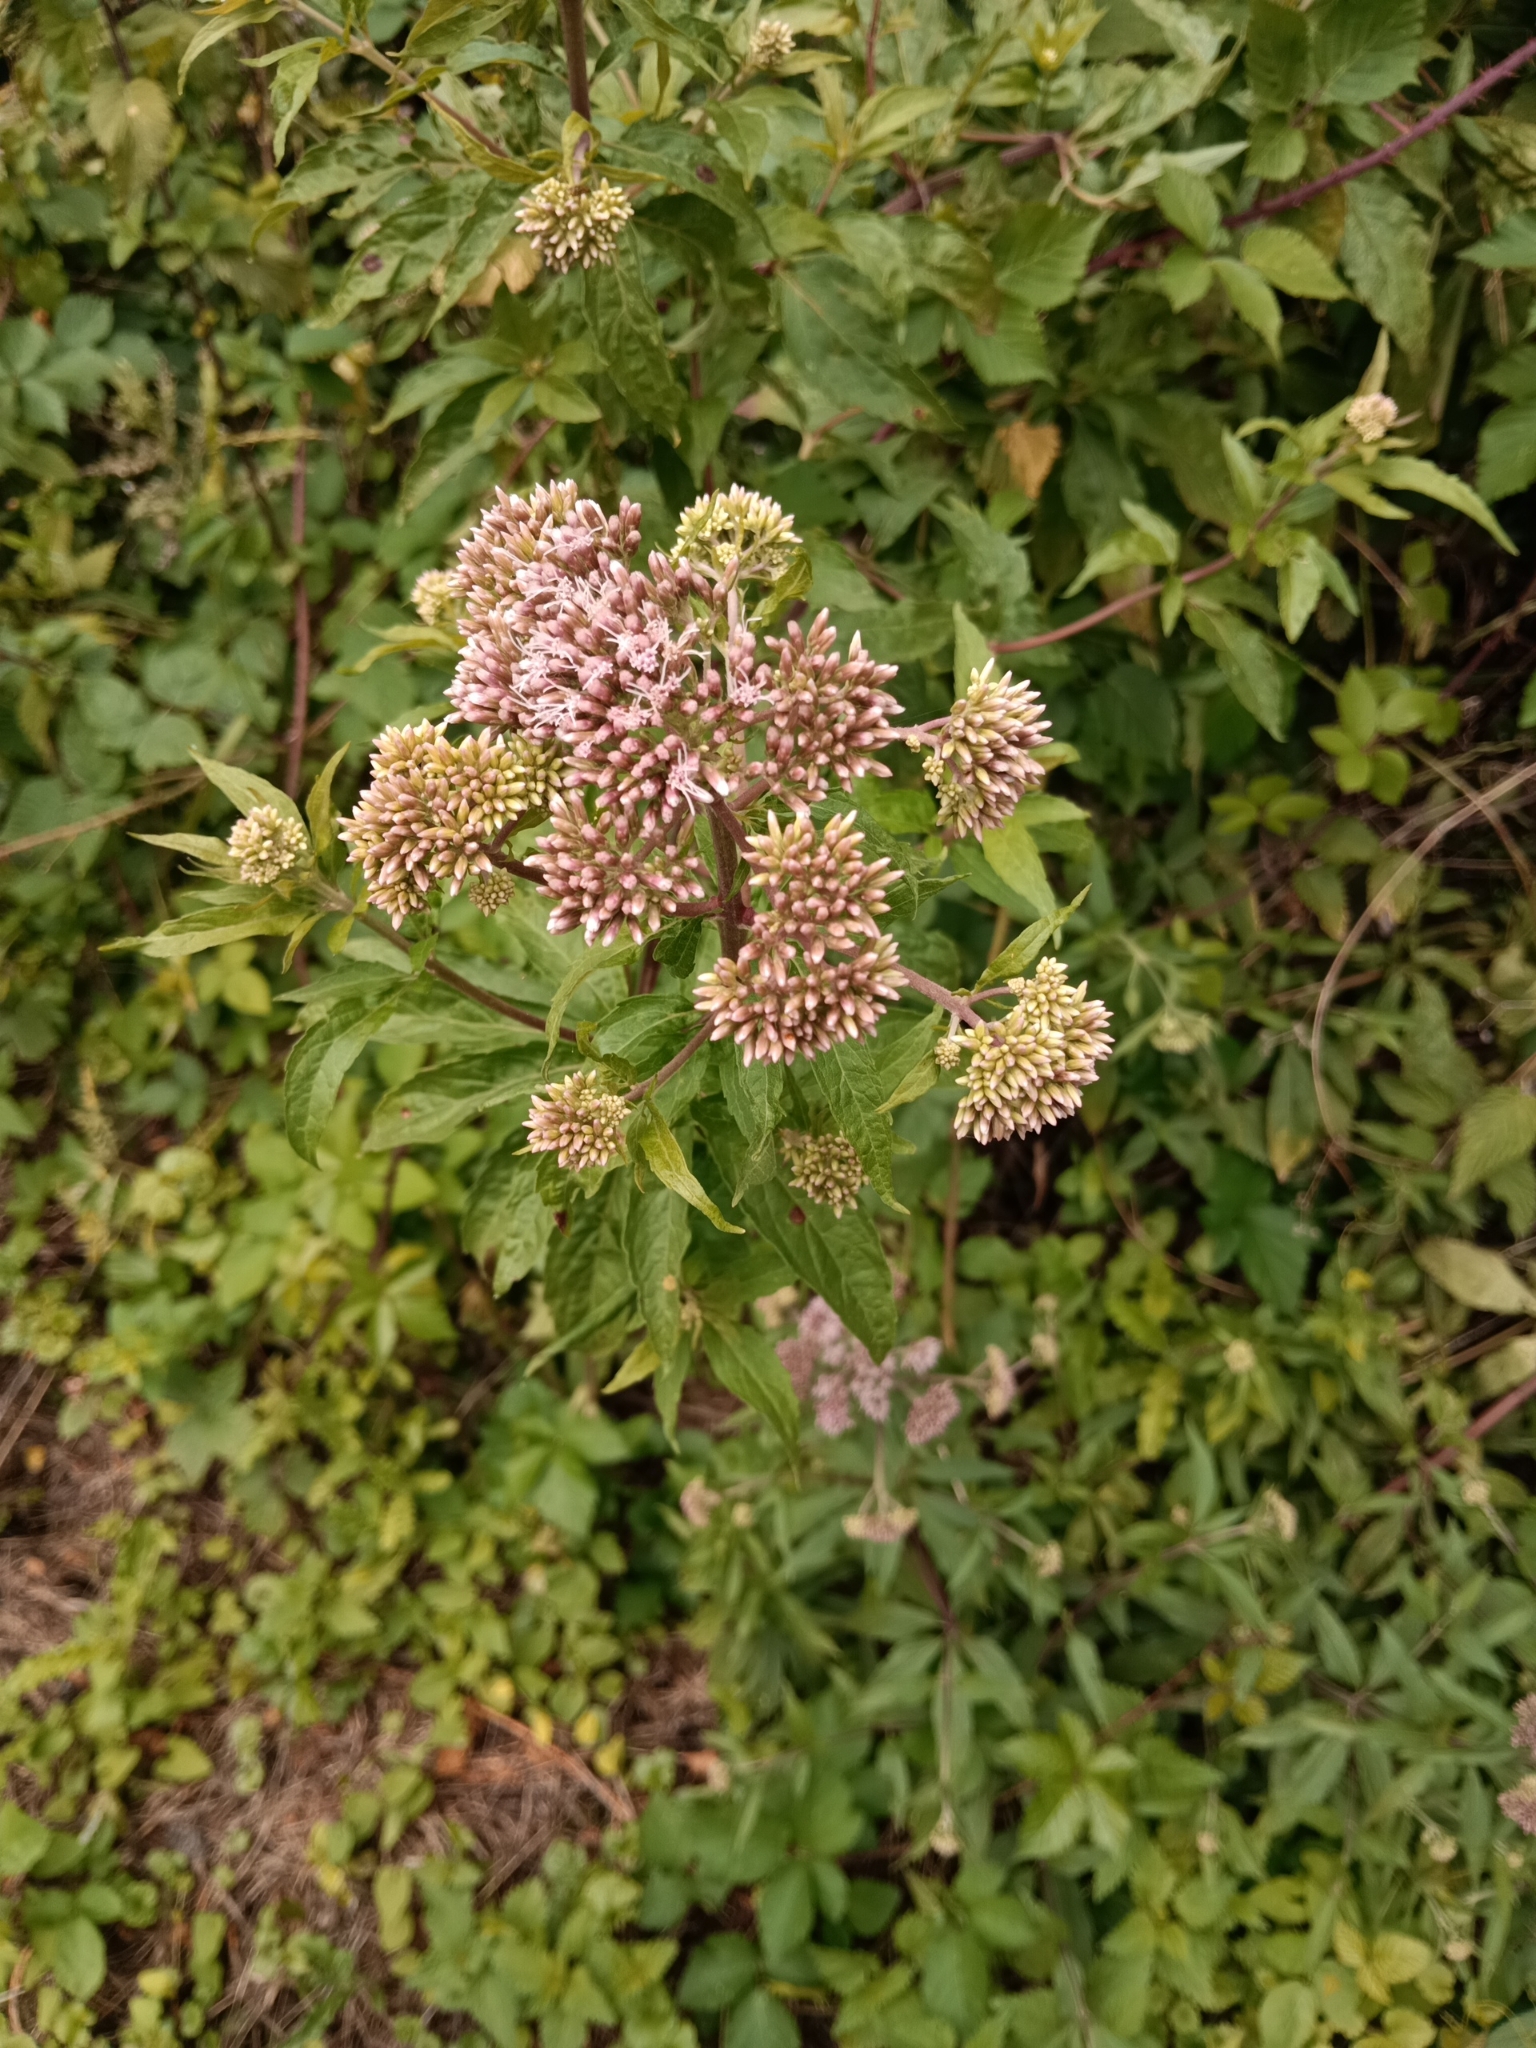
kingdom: Plantae
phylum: Tracheophyta
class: Magnoliopsida
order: Asterales
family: Asteraceae
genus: Eupatorium
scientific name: Eupatorium cannabinum
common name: Hemp-agrimony
